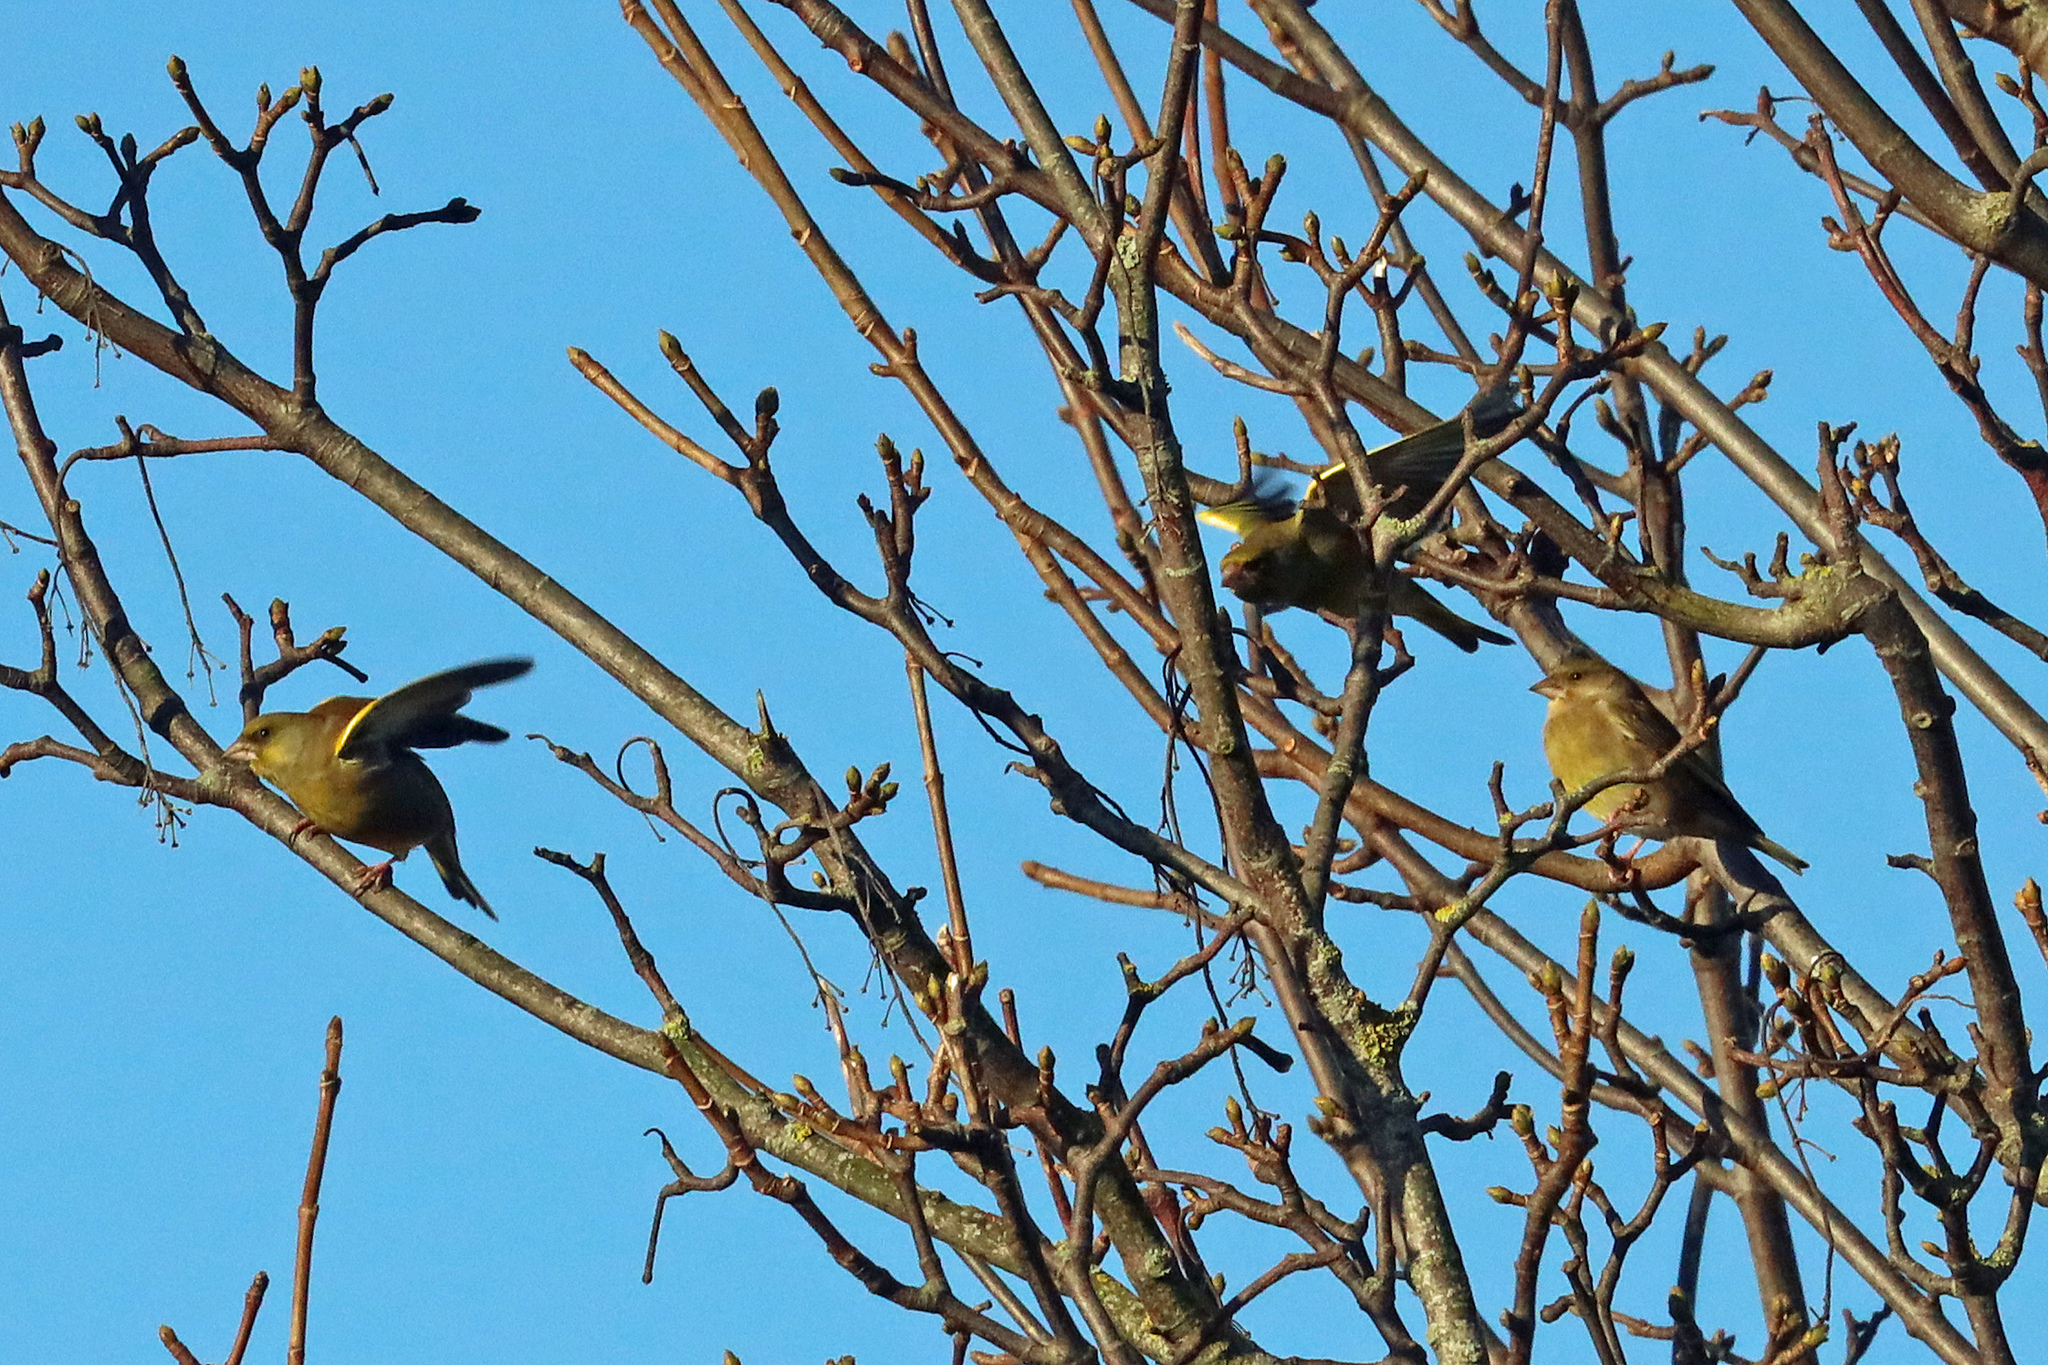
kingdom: Plantae
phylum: Tracheophyta
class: Liliopsida
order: Poales
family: Poaceae
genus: Chloris
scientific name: Chloris chloris
